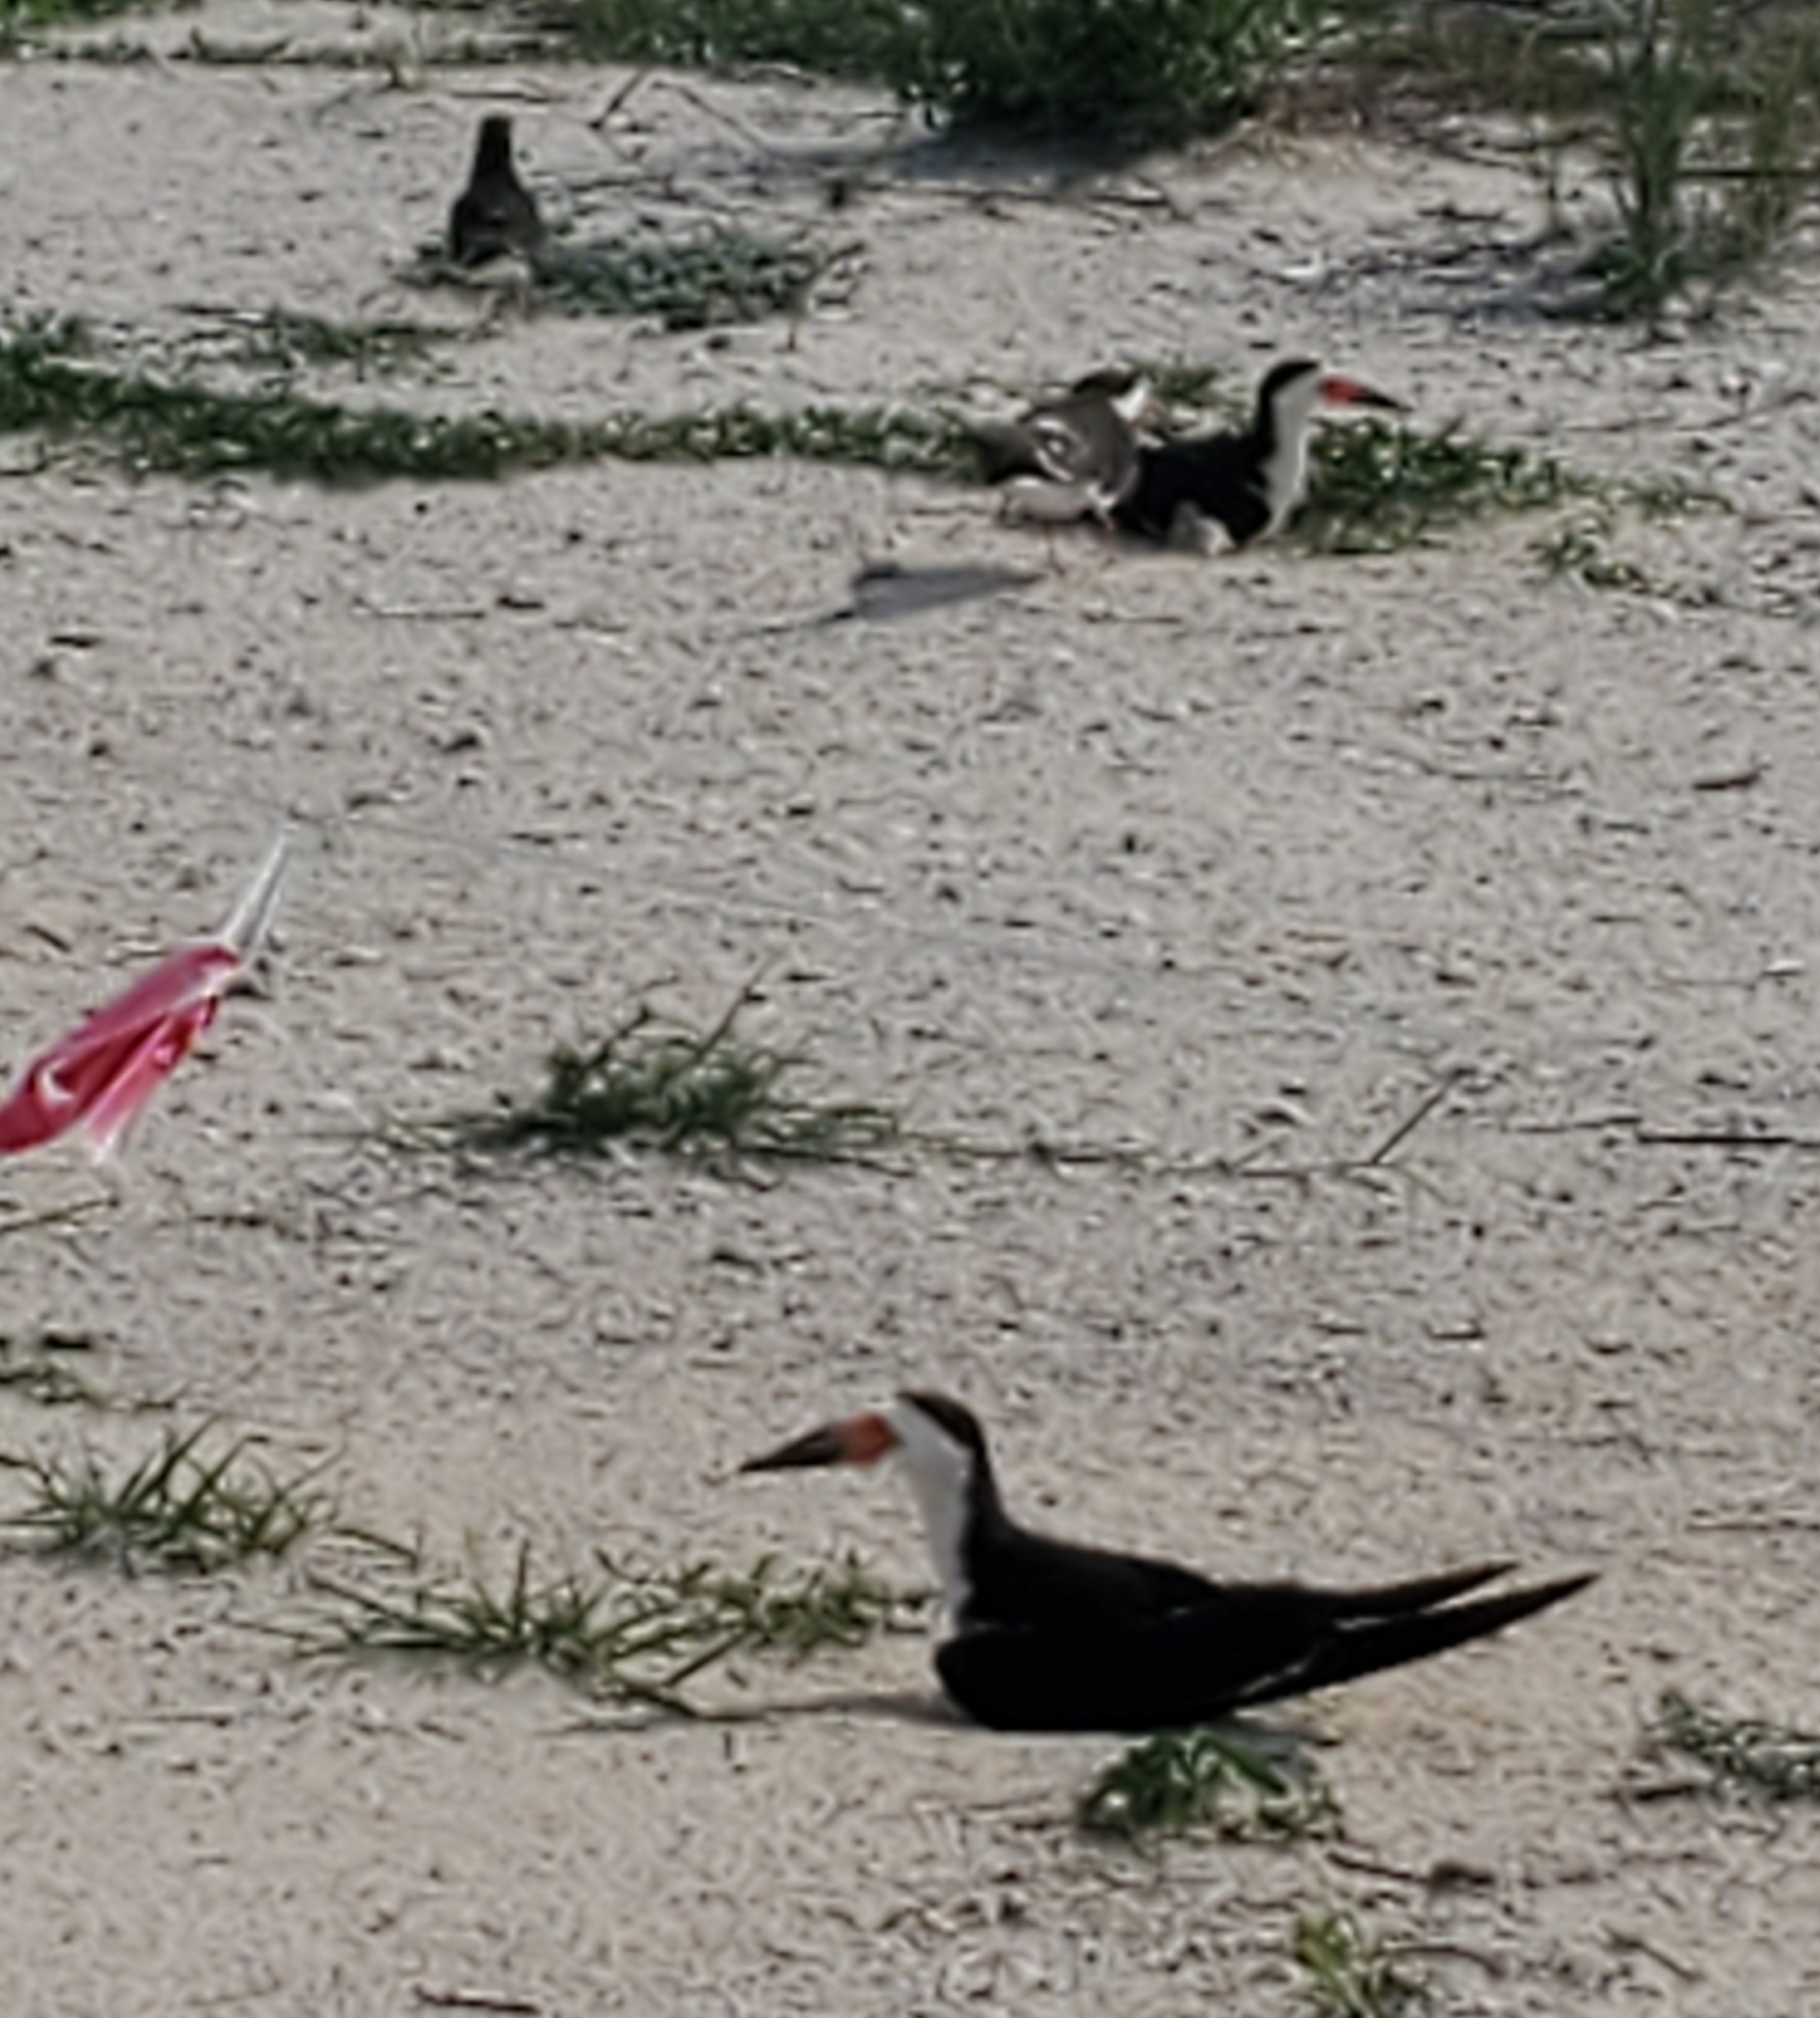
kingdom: Animalia
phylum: Chordata
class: Aves
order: Charadriiformes
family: Laridae
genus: Rynchops
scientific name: Rynchops niger
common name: Black skimmer
